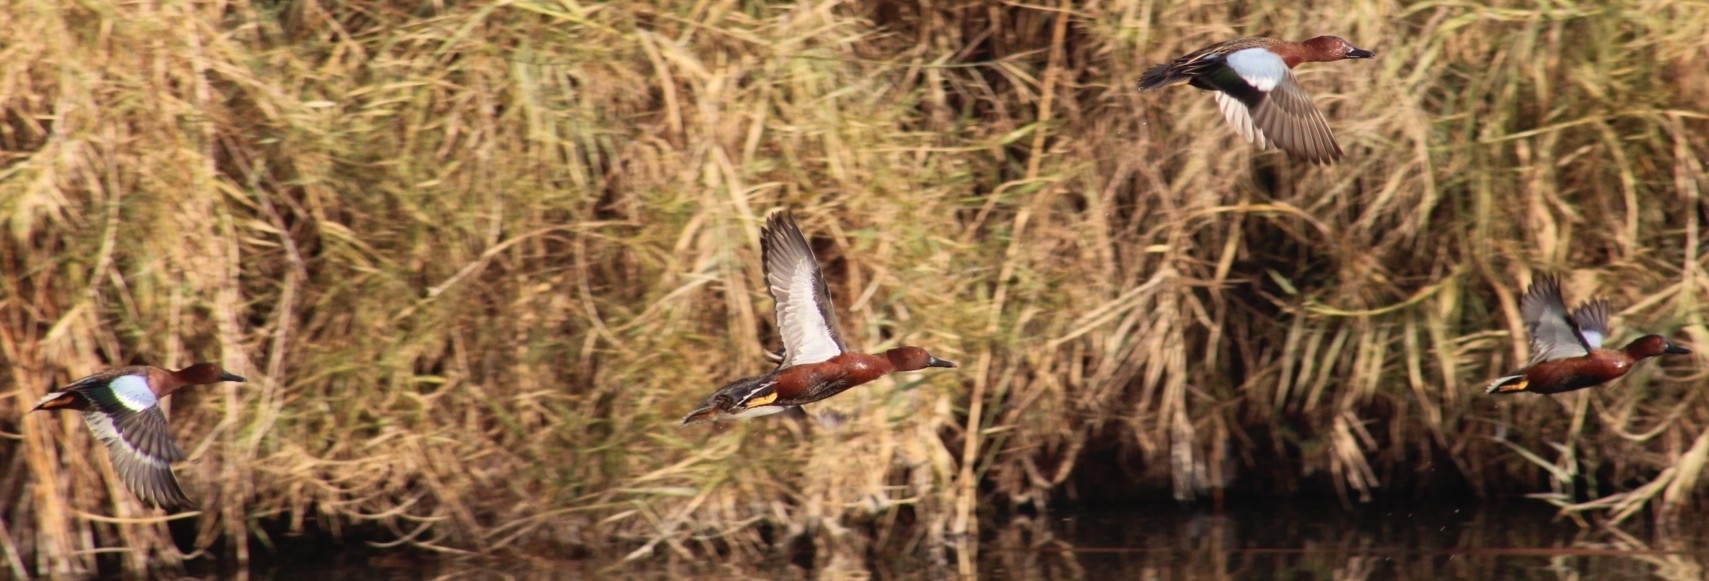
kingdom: Animalia
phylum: Chordata
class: Aves
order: Anseriformes
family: Anatidae
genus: Spatula
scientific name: Spatula cyanoptera
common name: Cinnamon teal
